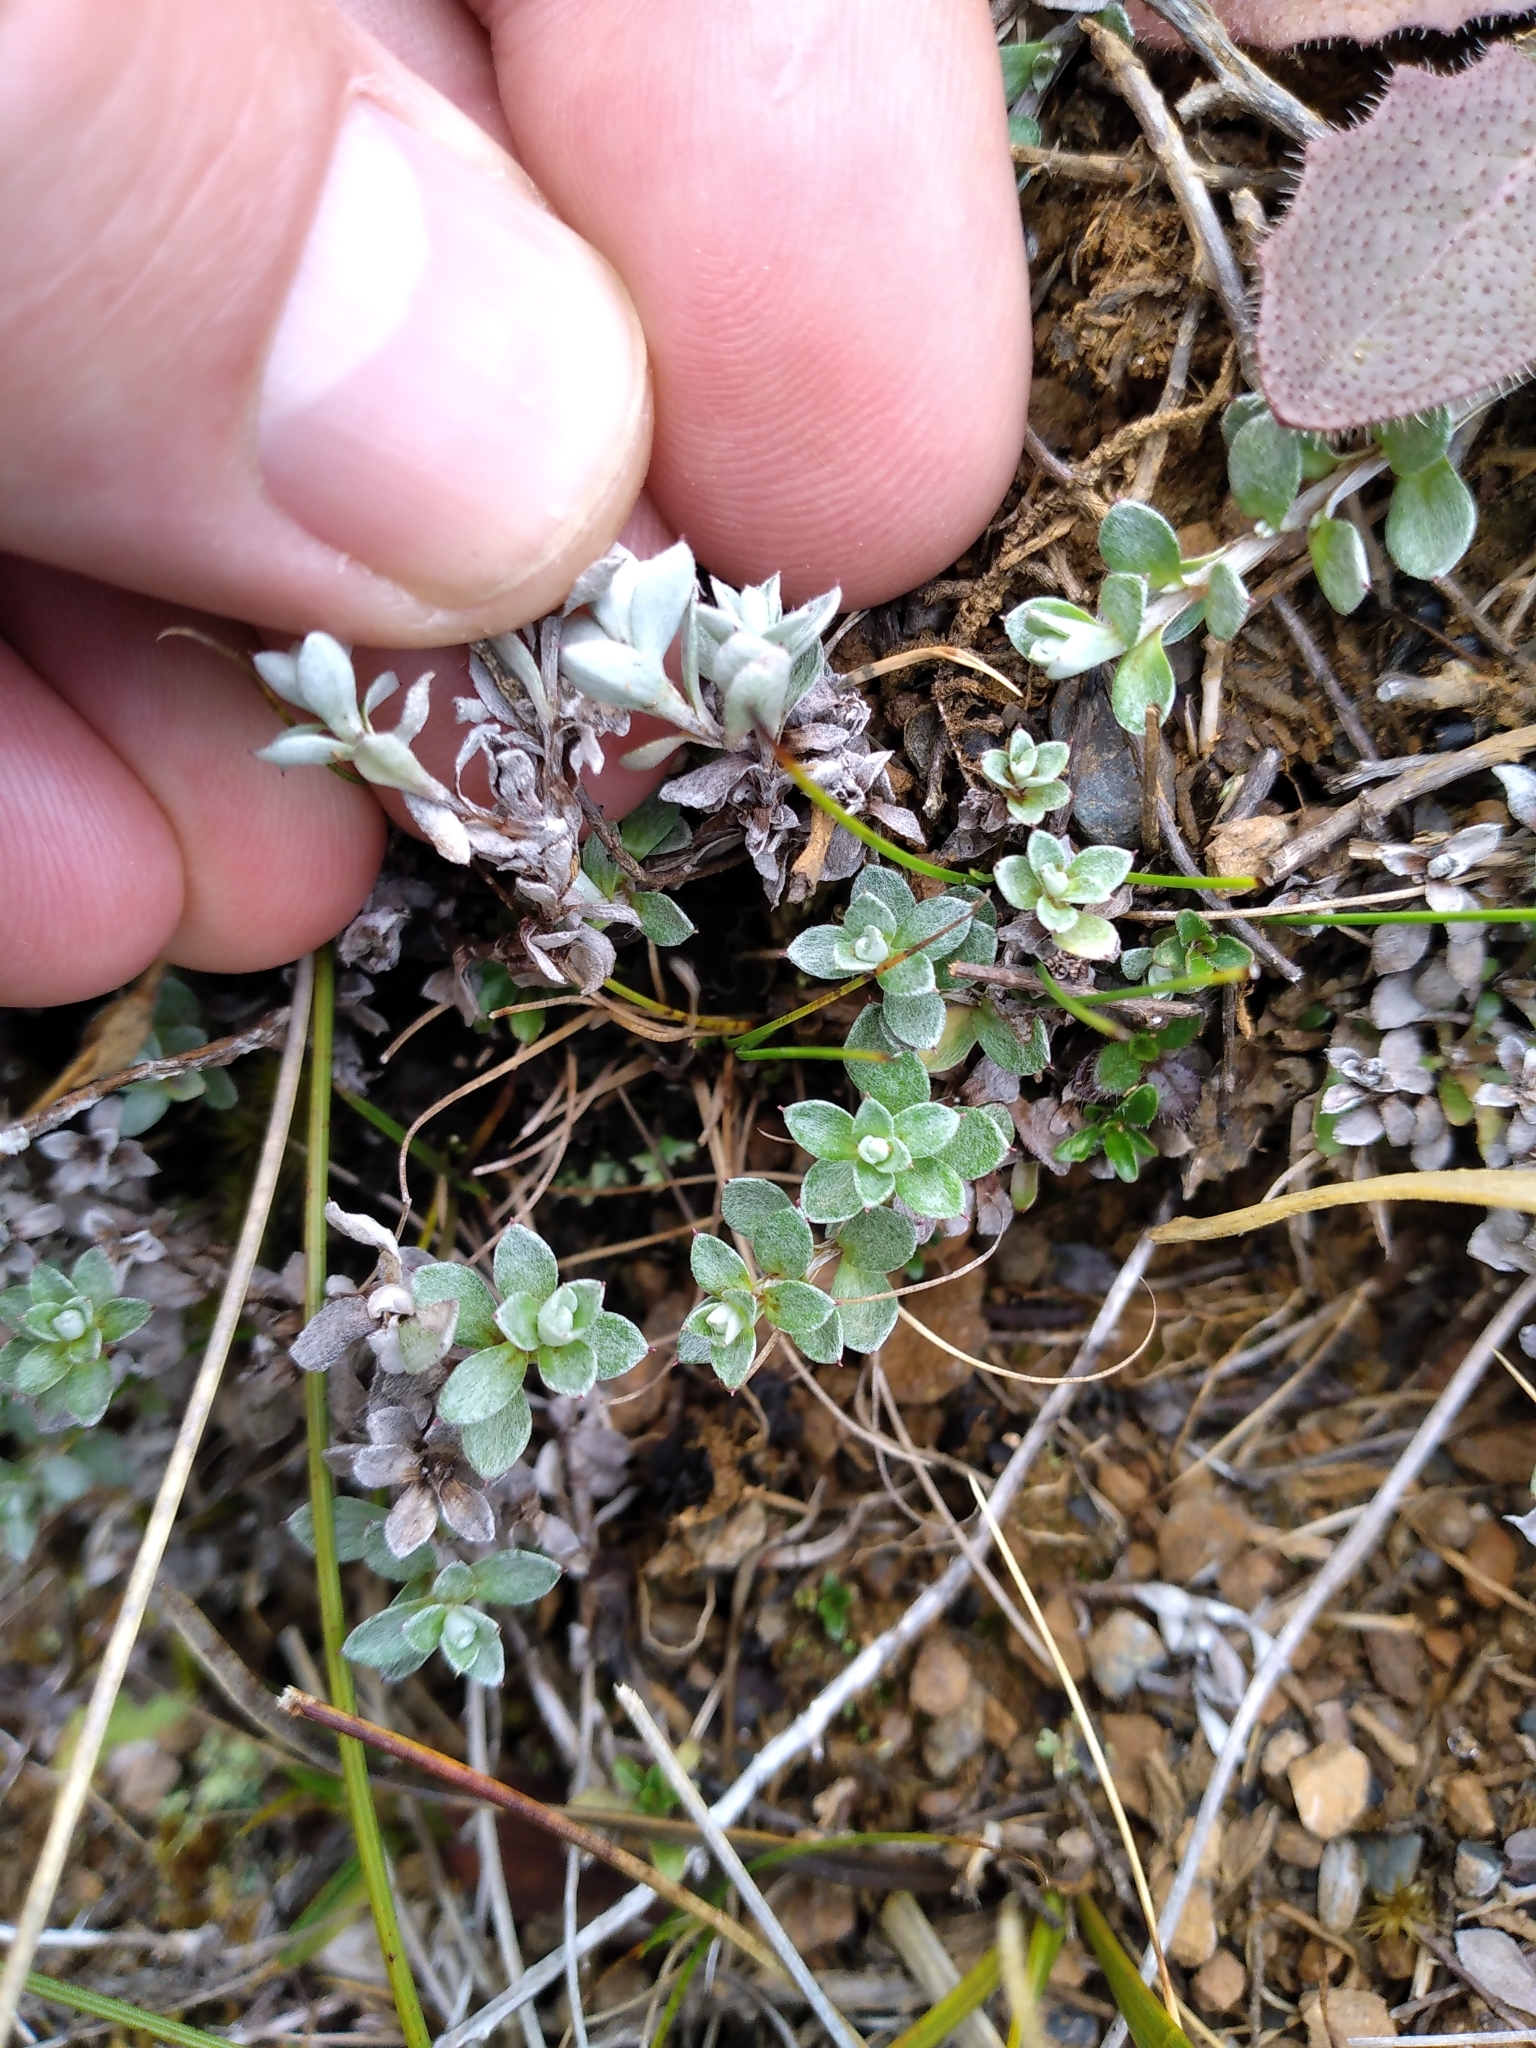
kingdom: Plantae
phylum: Tracheophyta
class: Magnoliopsida
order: Asterales
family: Asteraceae
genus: Anaphalioides
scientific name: Anaphalioides bellidioides
